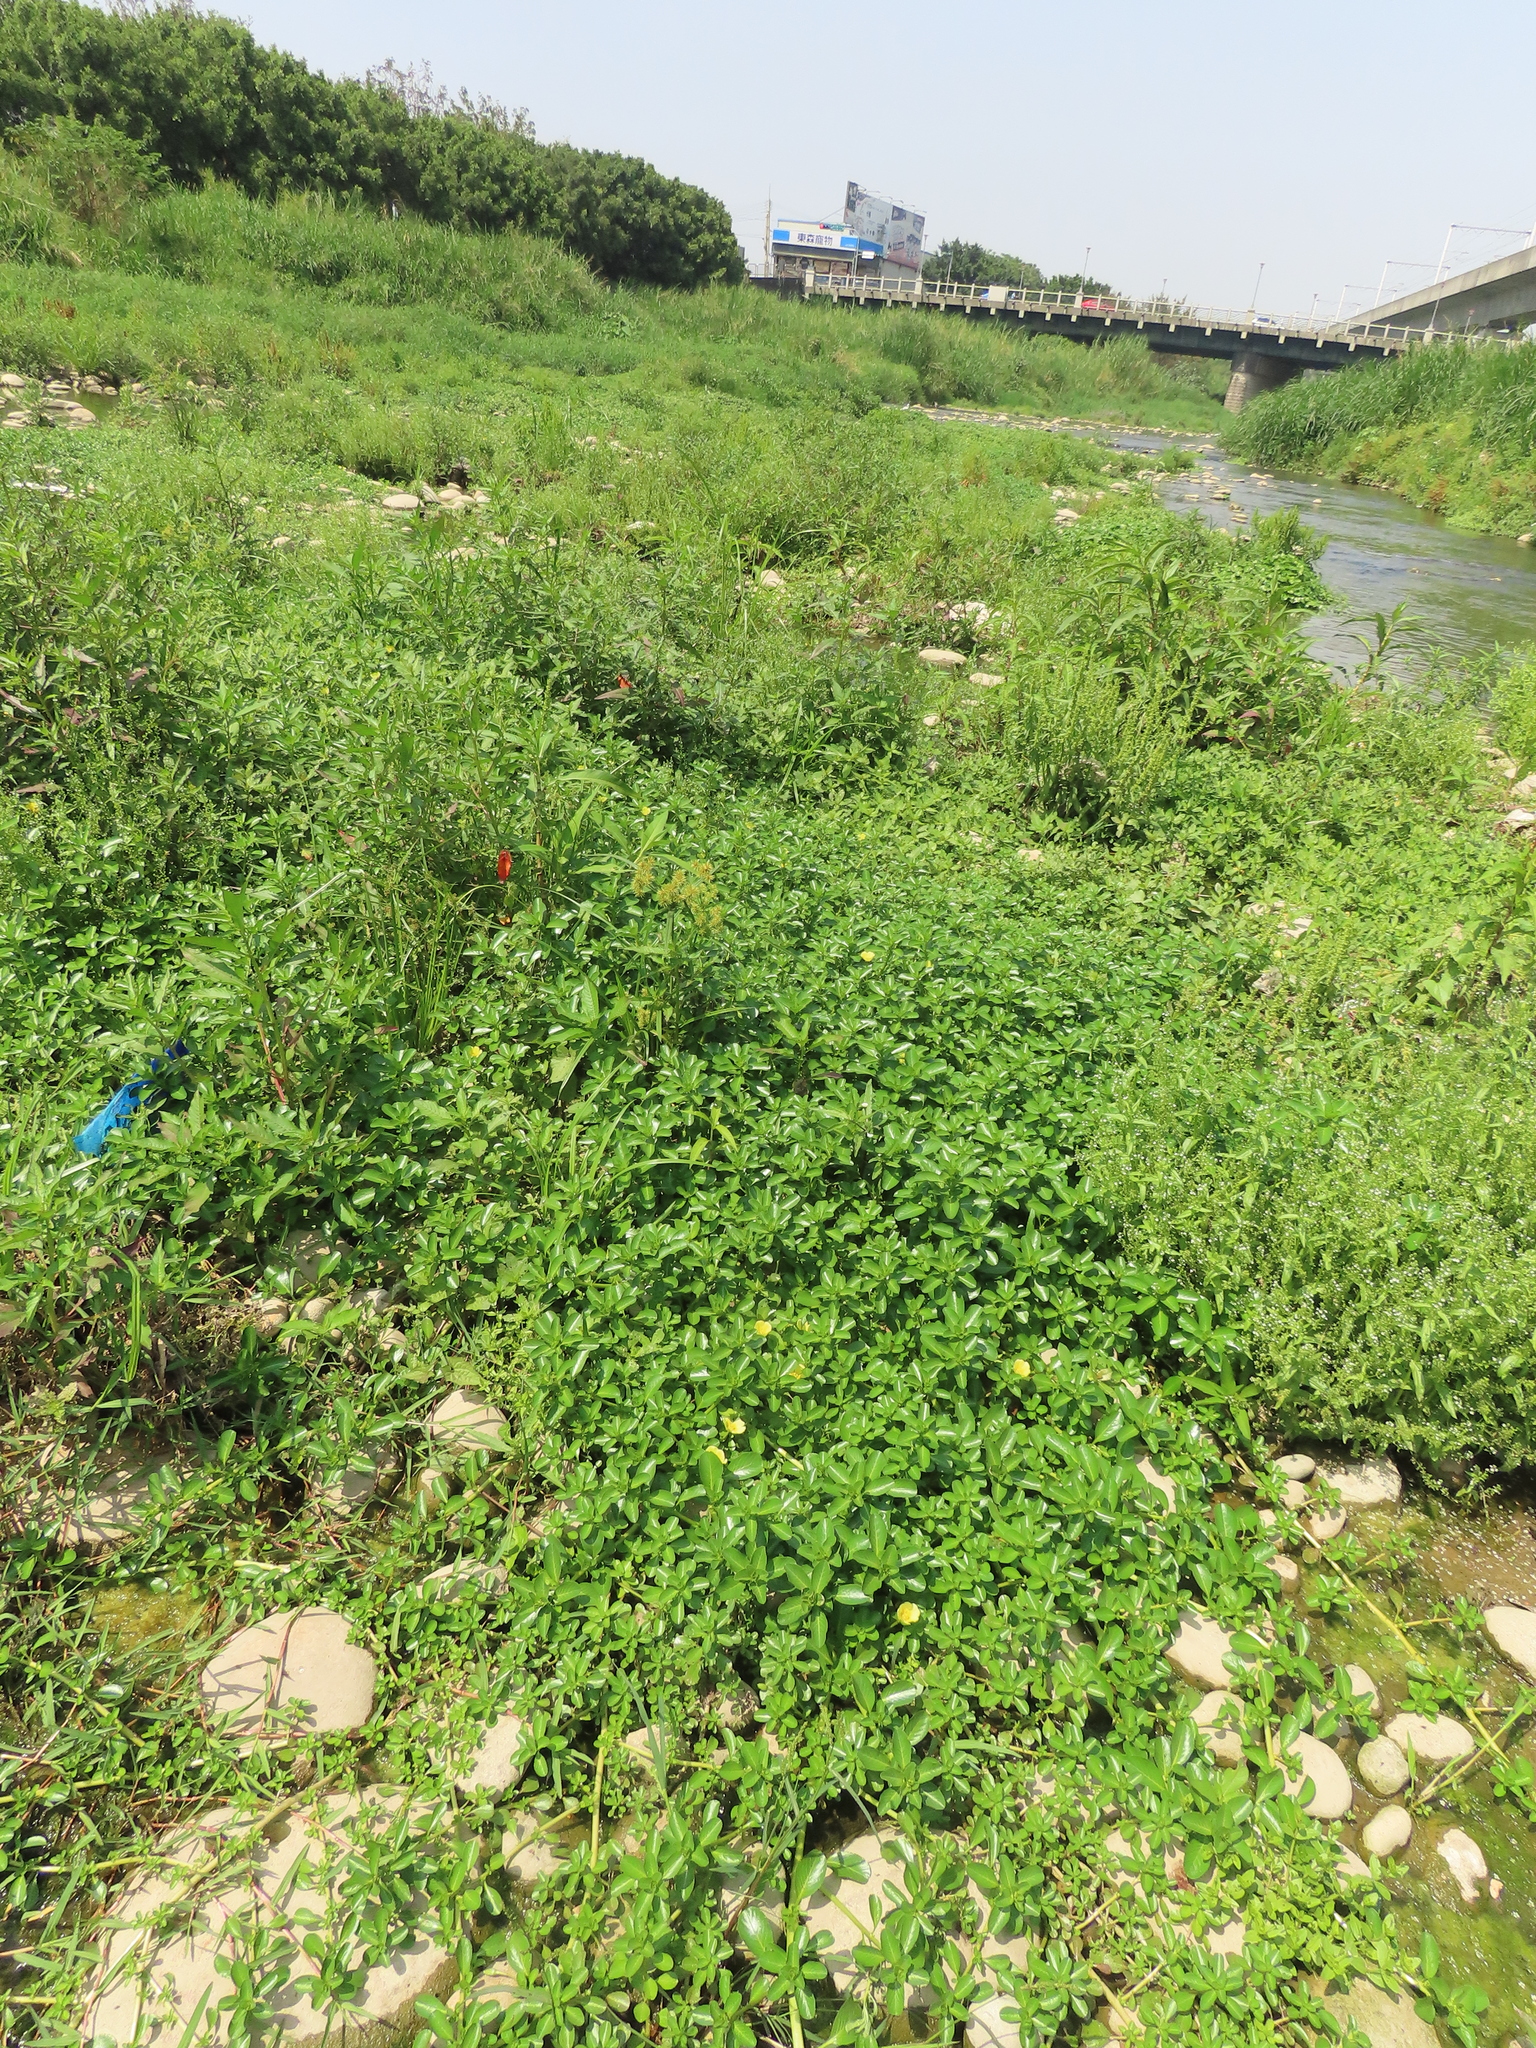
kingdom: Plantae
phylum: Tracheophyta
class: Magnoliopsida
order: Myrtales
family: Onagraceae
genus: Ludwigia
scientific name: Ludwigia taiwanensis
